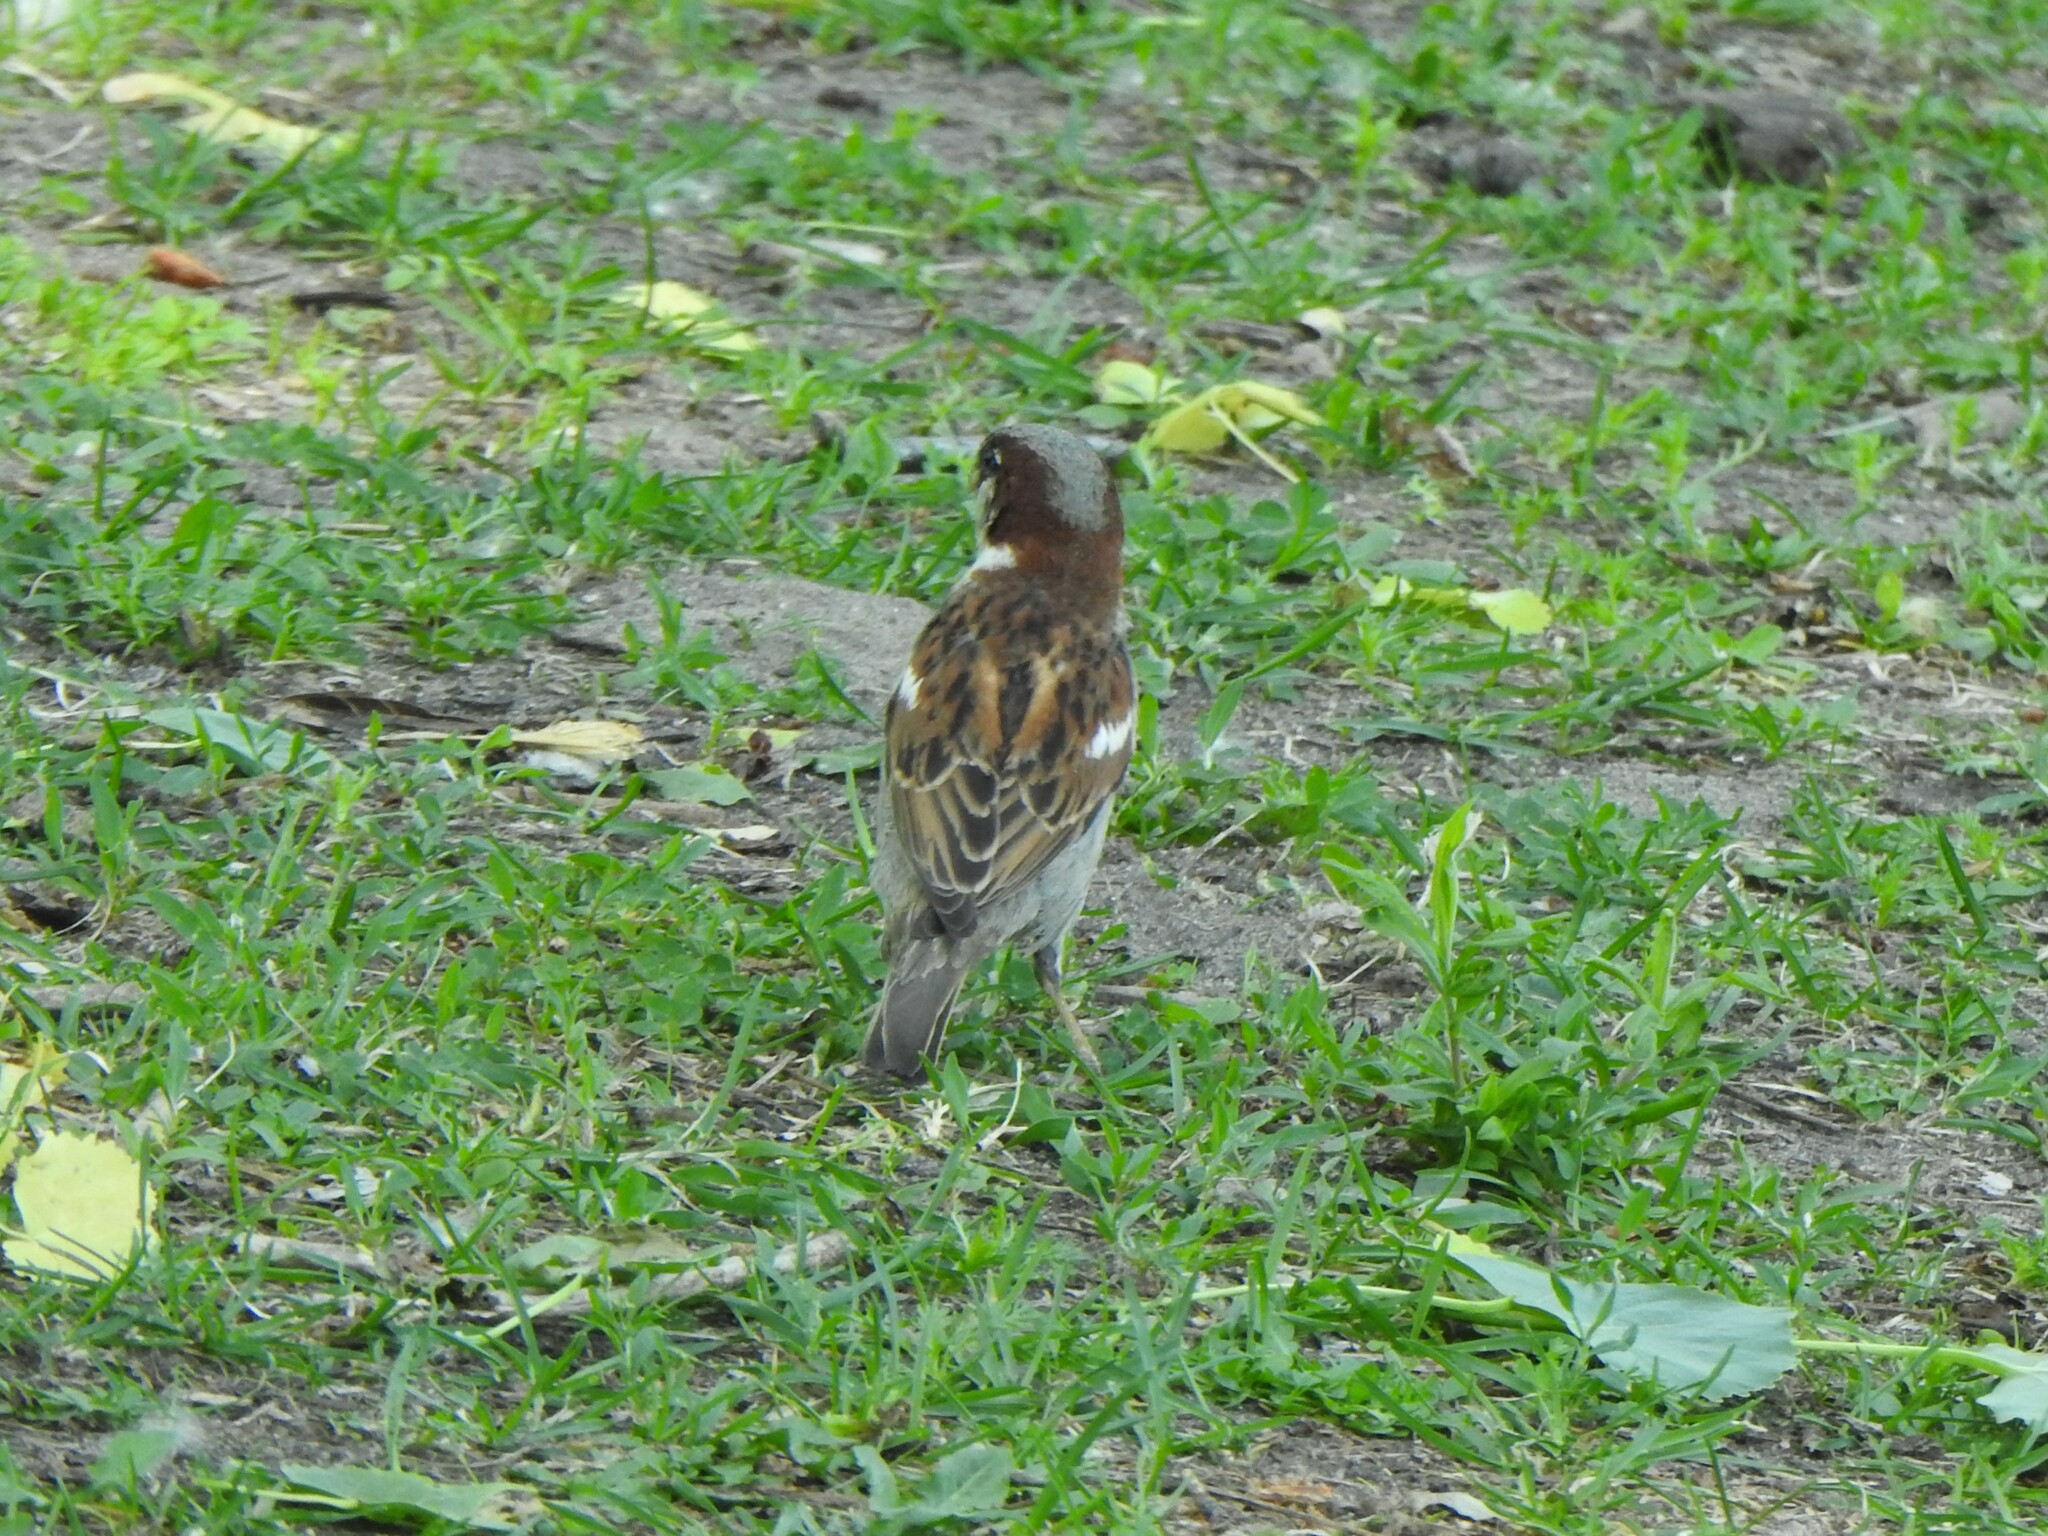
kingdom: Animalia
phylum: Chordata
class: Aves
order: Passeriformes
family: Passeridae
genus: Passer
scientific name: Passer domesticus
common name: House sparrow
